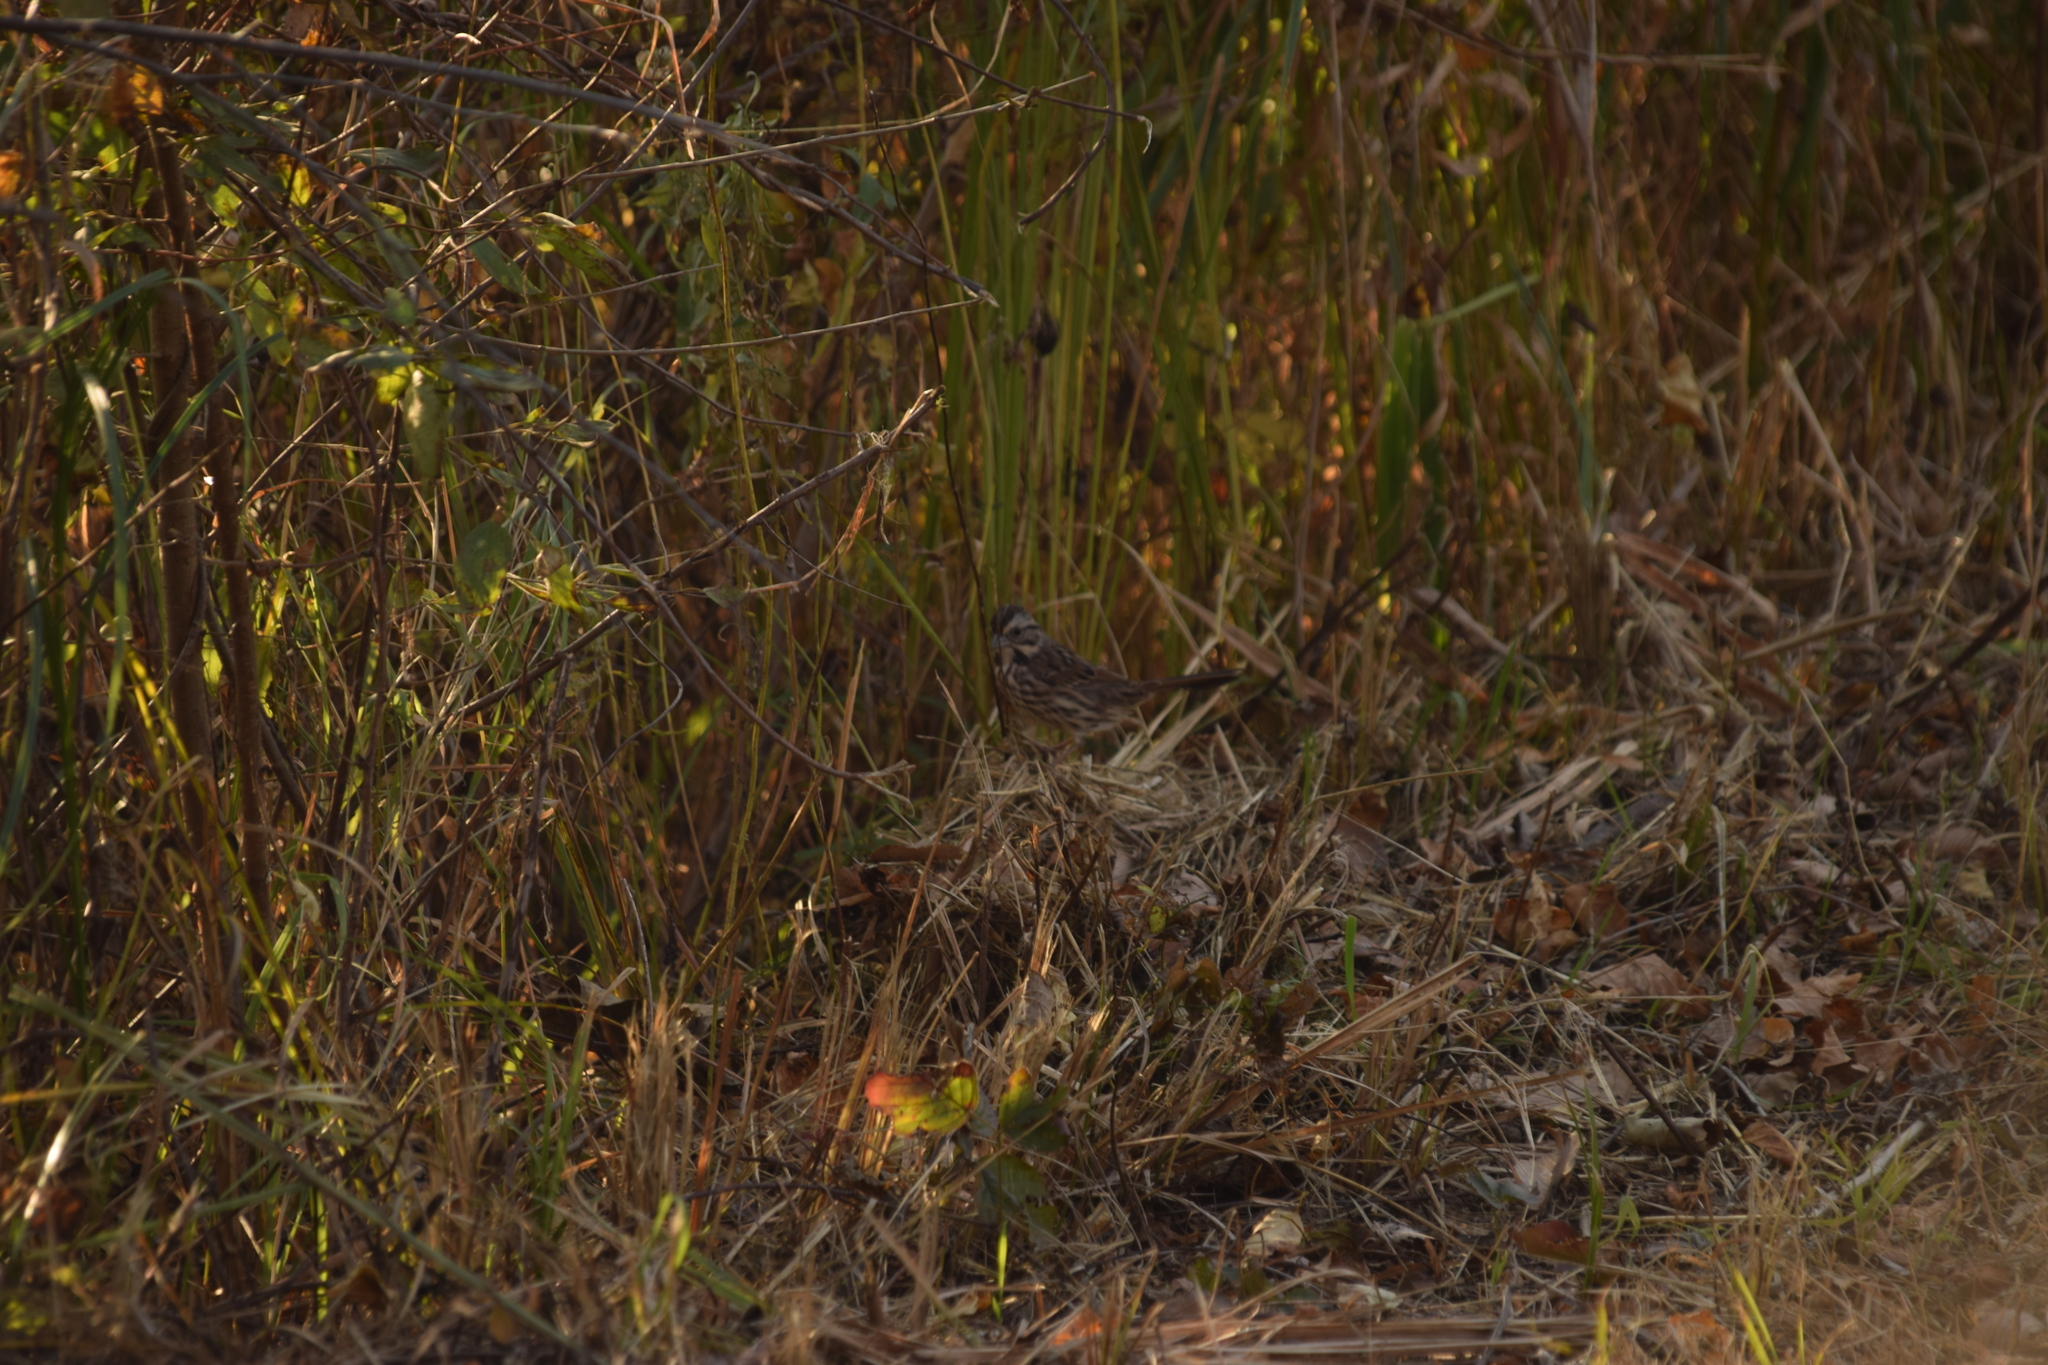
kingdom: Animalia
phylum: Chordata
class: Aves
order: Passeriformes
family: Passerellidae
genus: Melospiza
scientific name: Melospiza melodia
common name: Song sparrow
